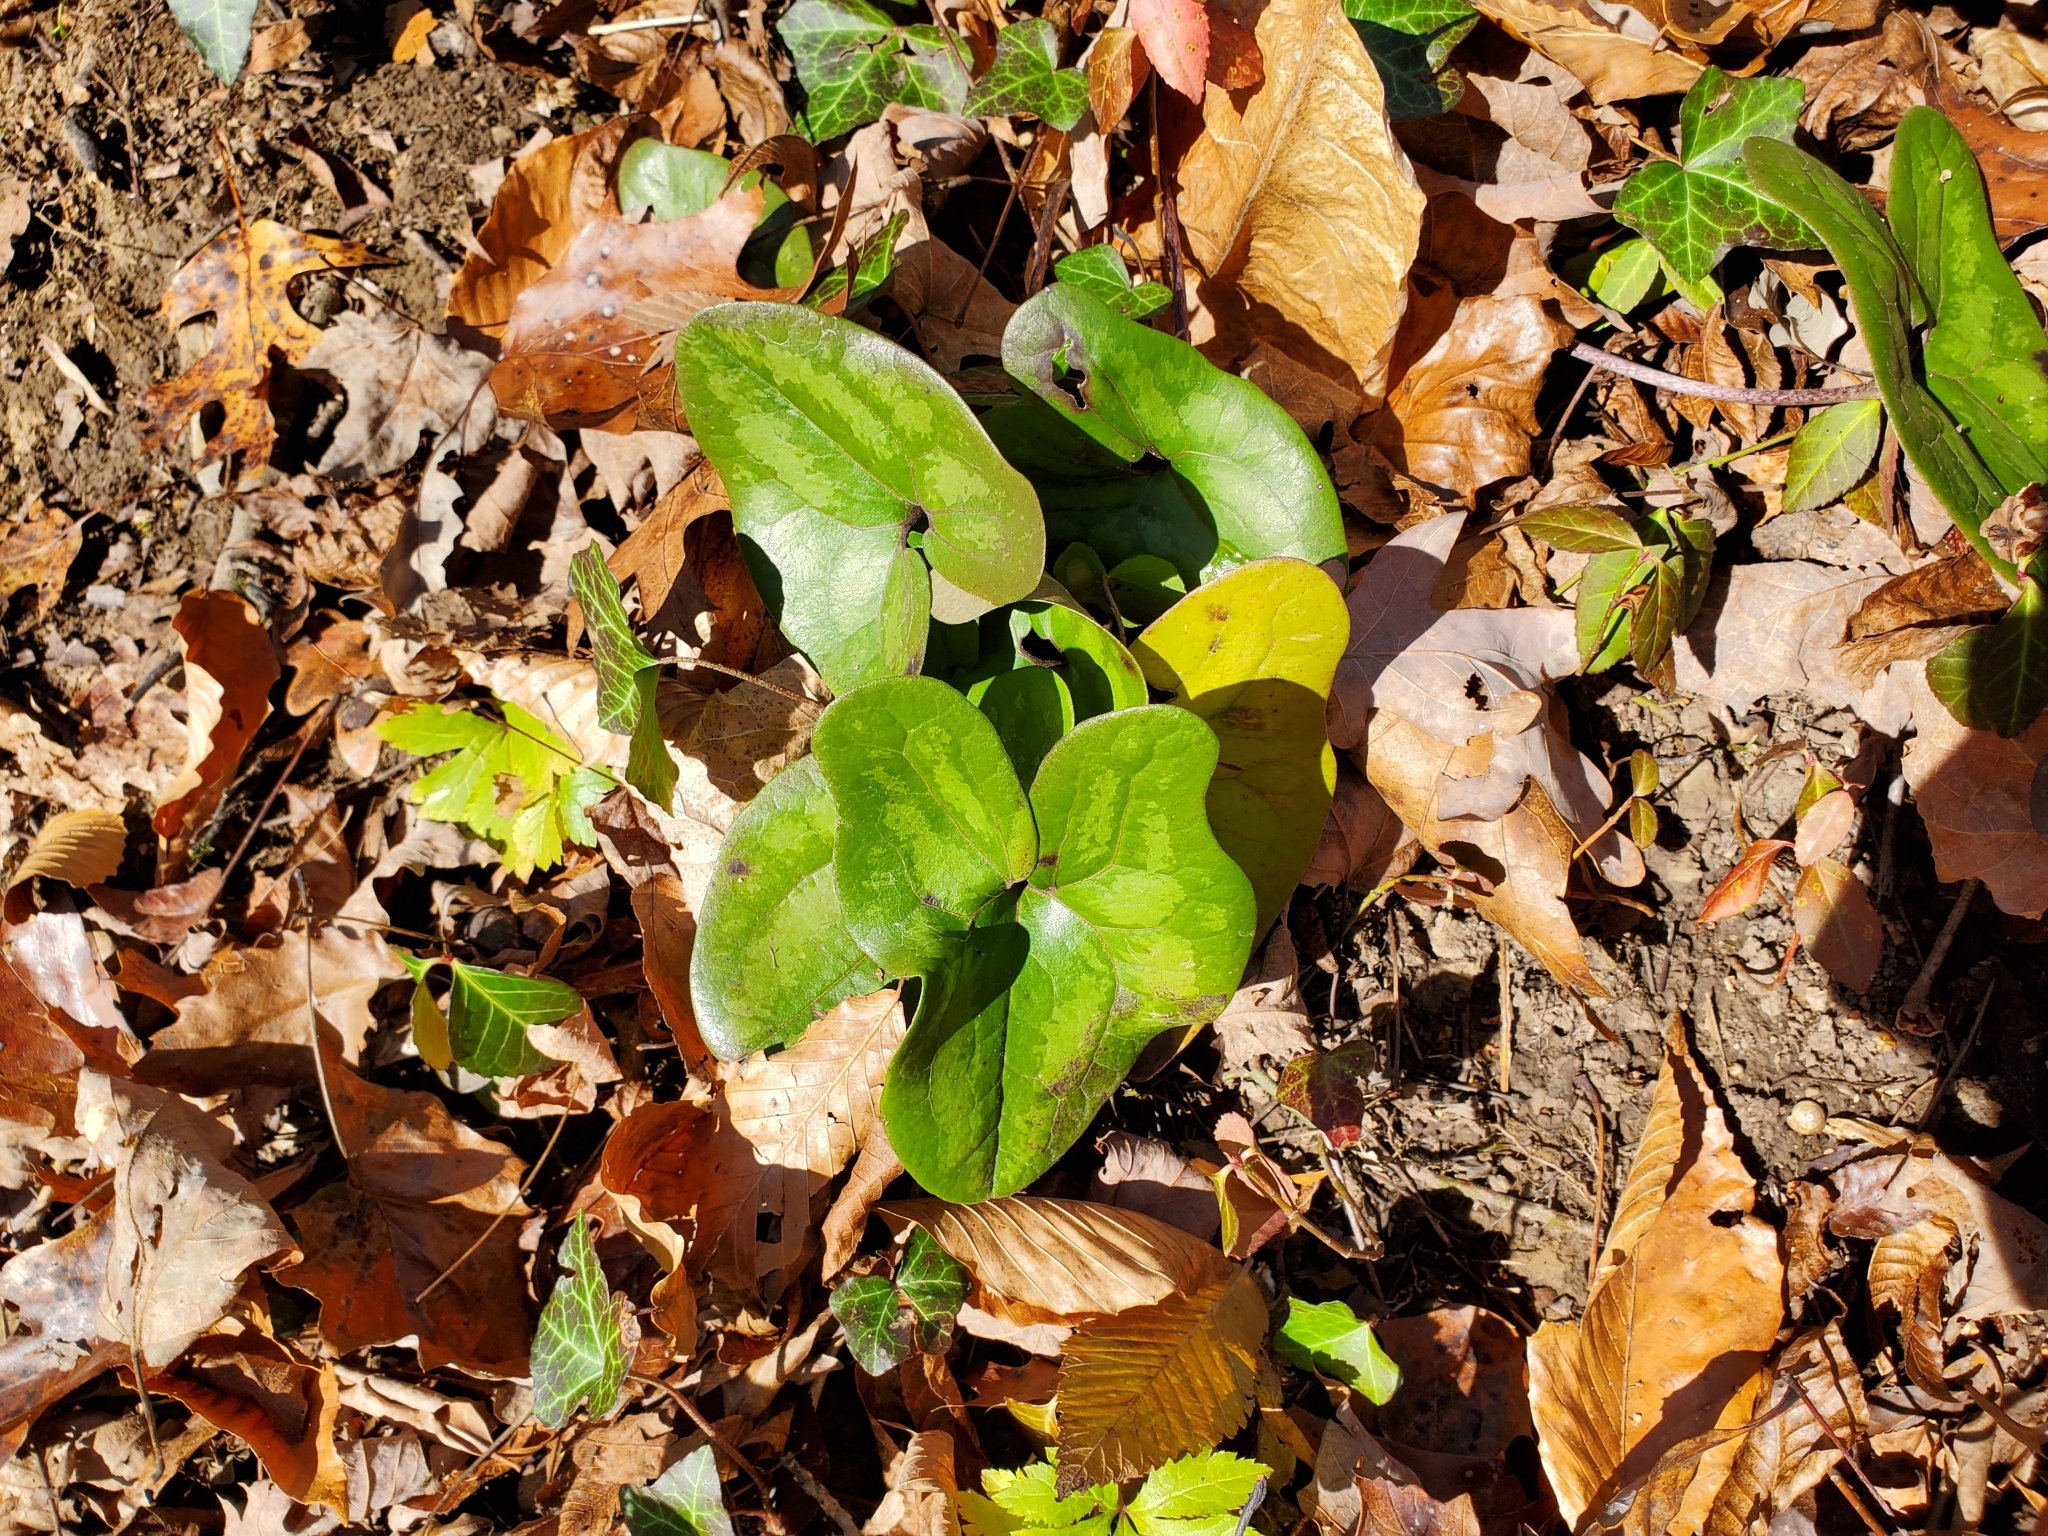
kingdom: Plantae
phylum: Tracheophyta
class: Magnoliopsida
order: Piperales
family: Aristolochiaceae
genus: Hexastylis
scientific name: Hexastylis arifolia
